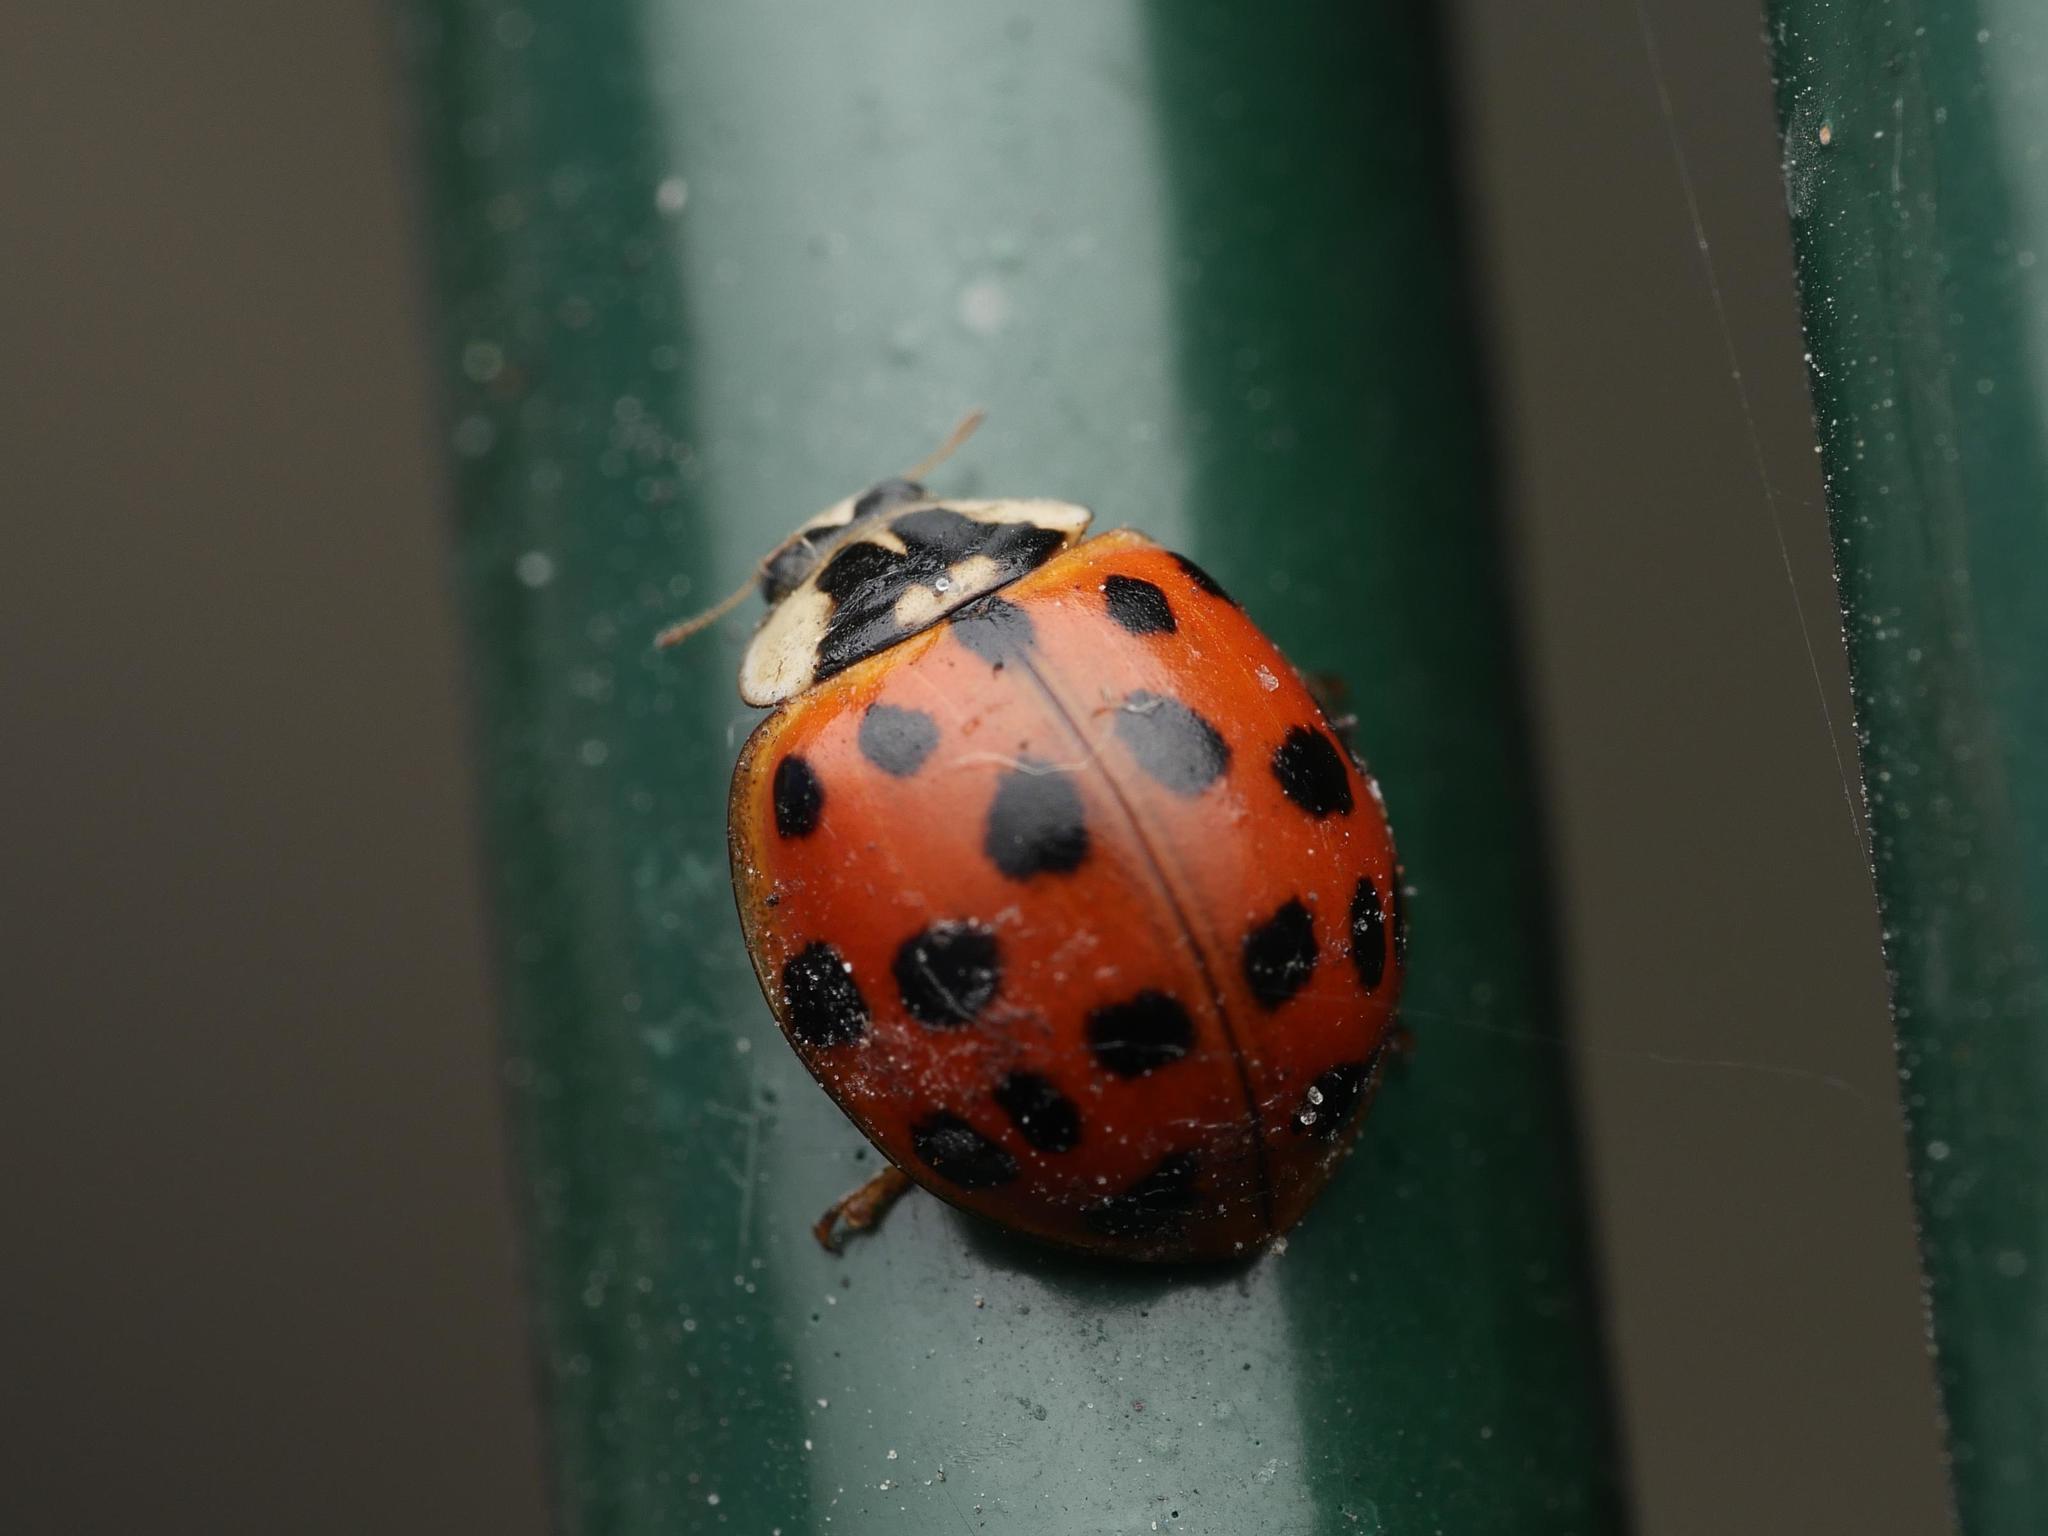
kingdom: Animalia
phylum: Arthropoda
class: Insecta
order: Coleoptera
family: Coccinellidae
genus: Harmonia
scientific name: Harmonia axyridis
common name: Harlequin ladybird
